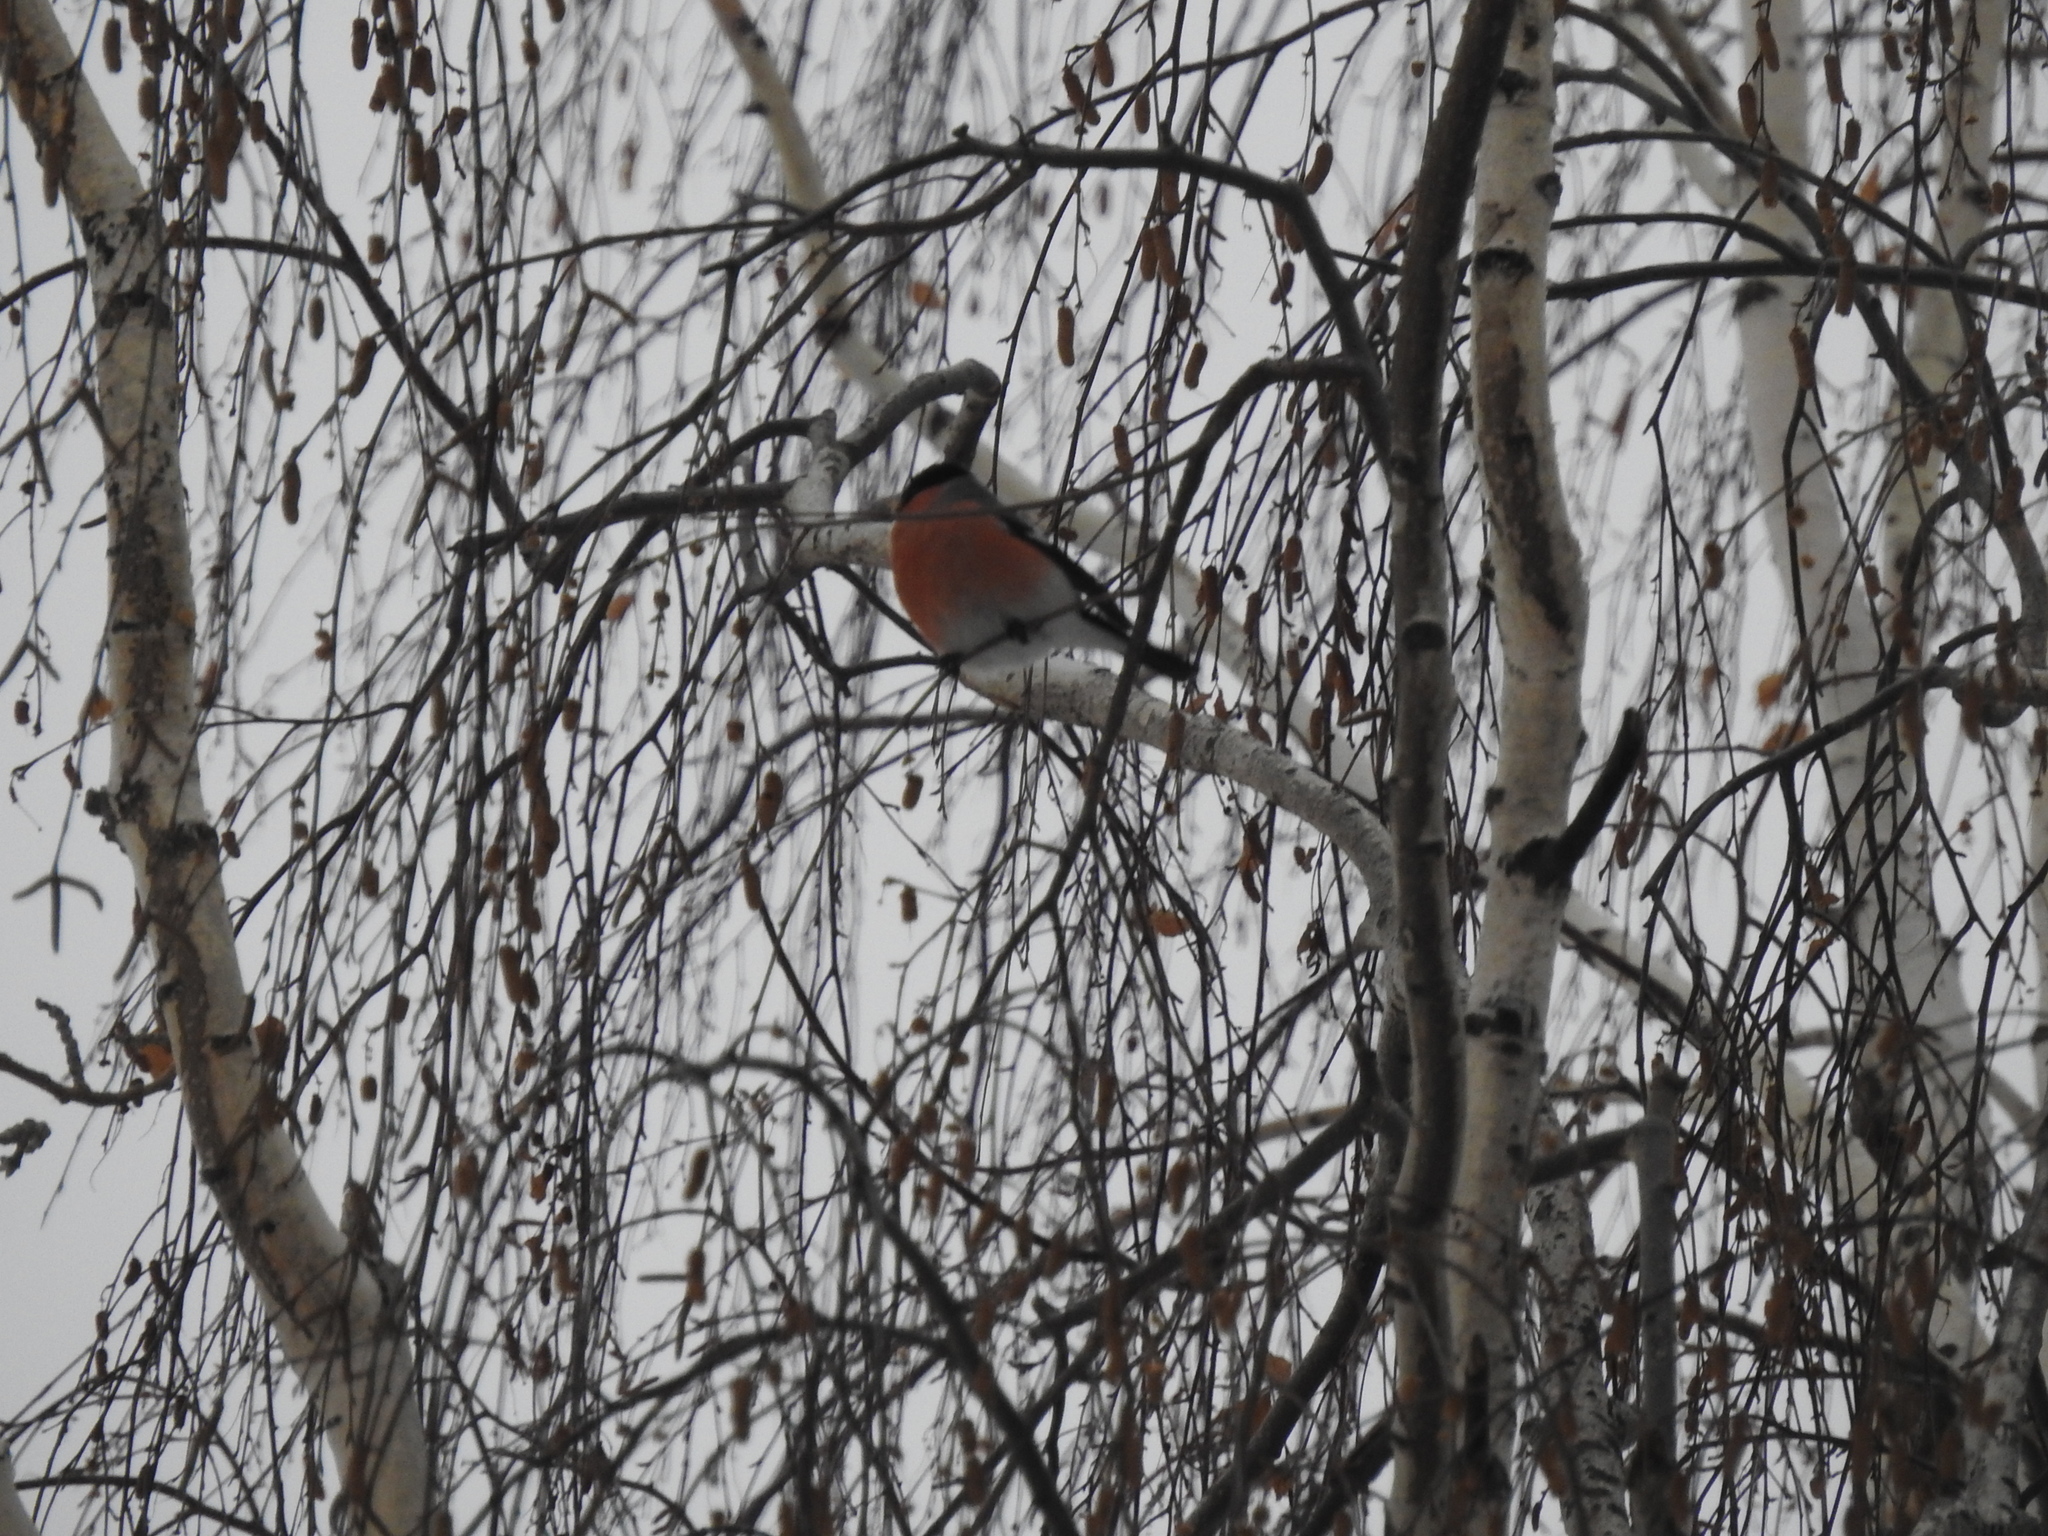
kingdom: Animalia
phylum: Chordata
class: Aves
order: Passeriformes
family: Fringillidae
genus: Pyrrhula
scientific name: Pyrrhula pyrrhula
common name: Eurasian bullfinch
